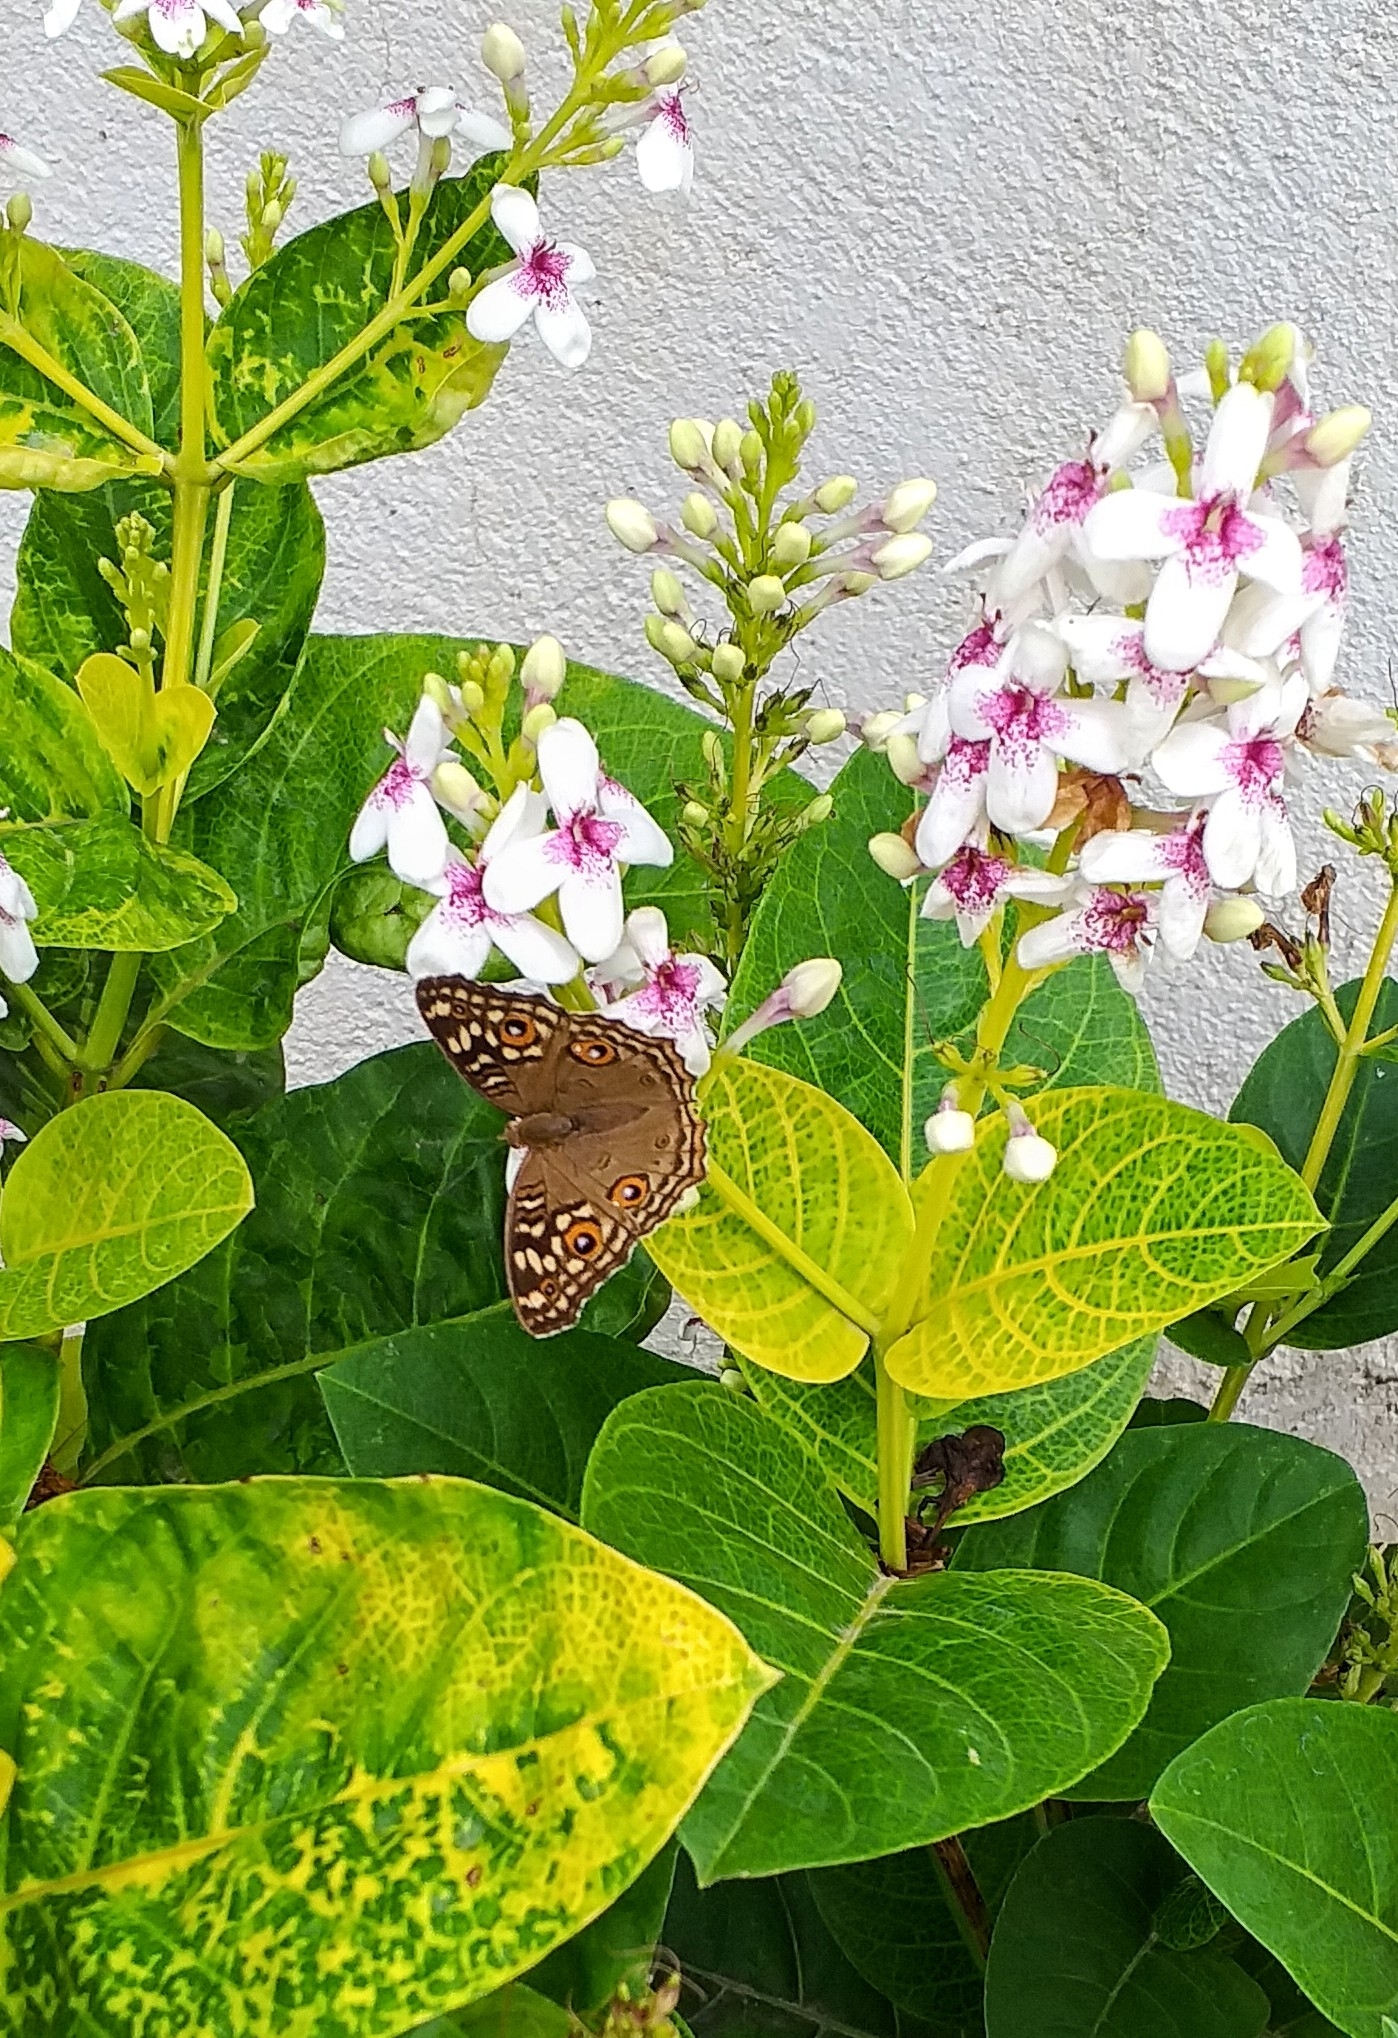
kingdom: Animalia
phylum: Arthropoda
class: Insecta
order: Lepidoptera
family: Nymphalidae
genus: Junonia
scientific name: Junonia lemonias
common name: Lemon pansy
